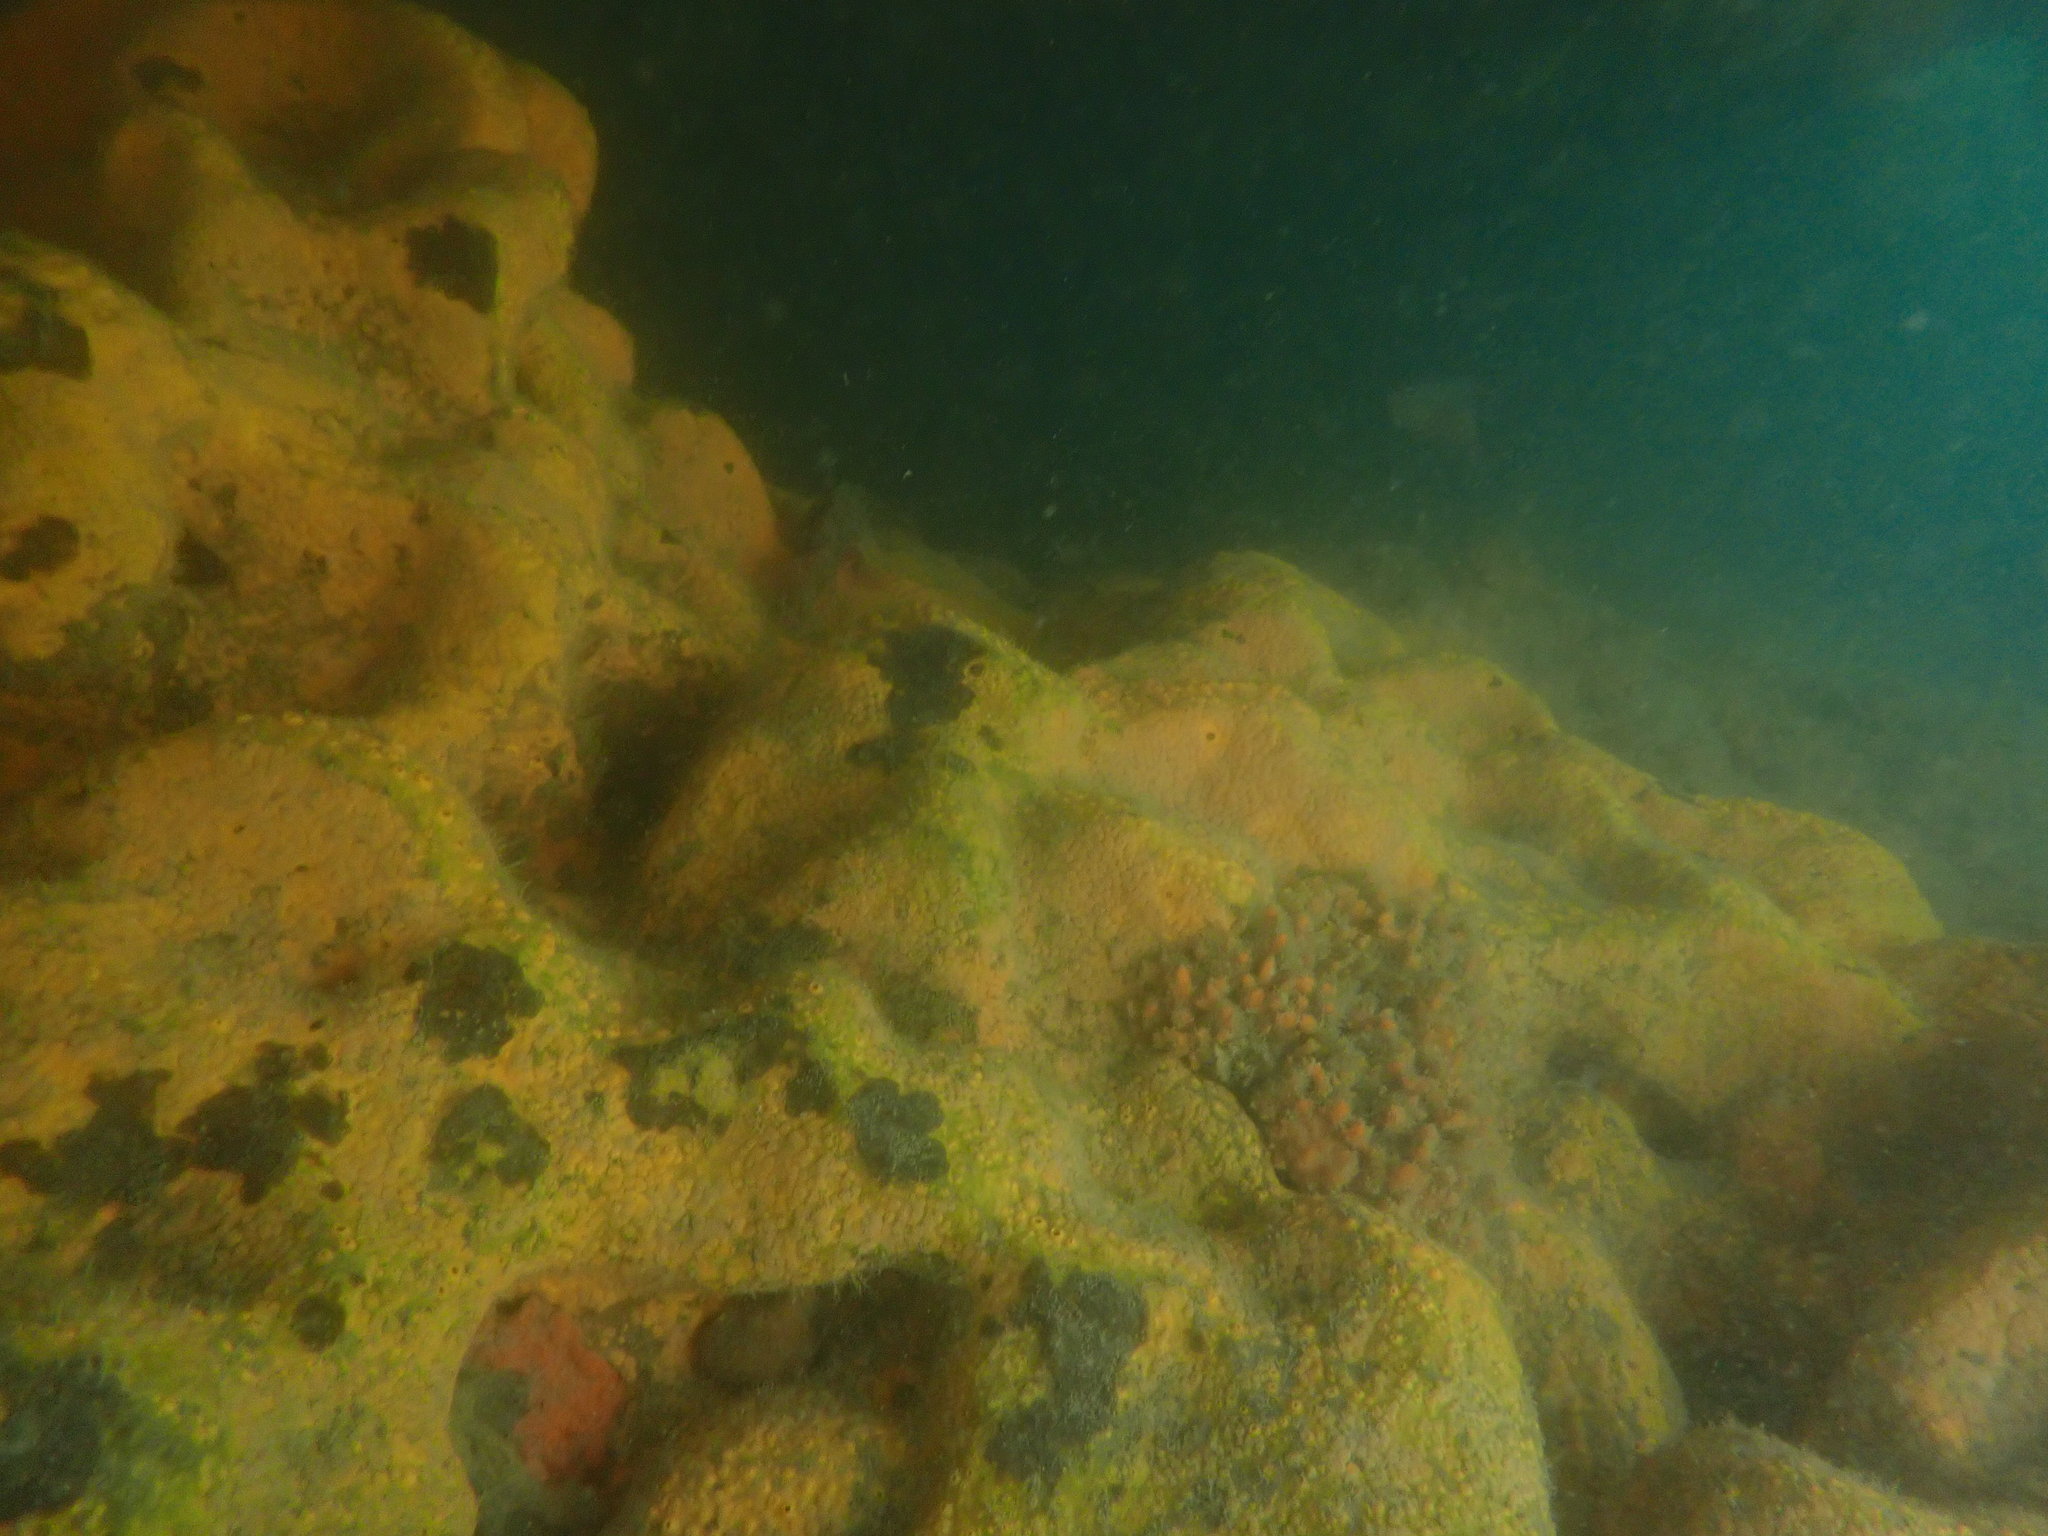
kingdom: Animalia
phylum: Porifera
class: Demospongiae
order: Clionaida
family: Clionaidae
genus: Cliona
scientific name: Cliona celata
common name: Boring sponge
